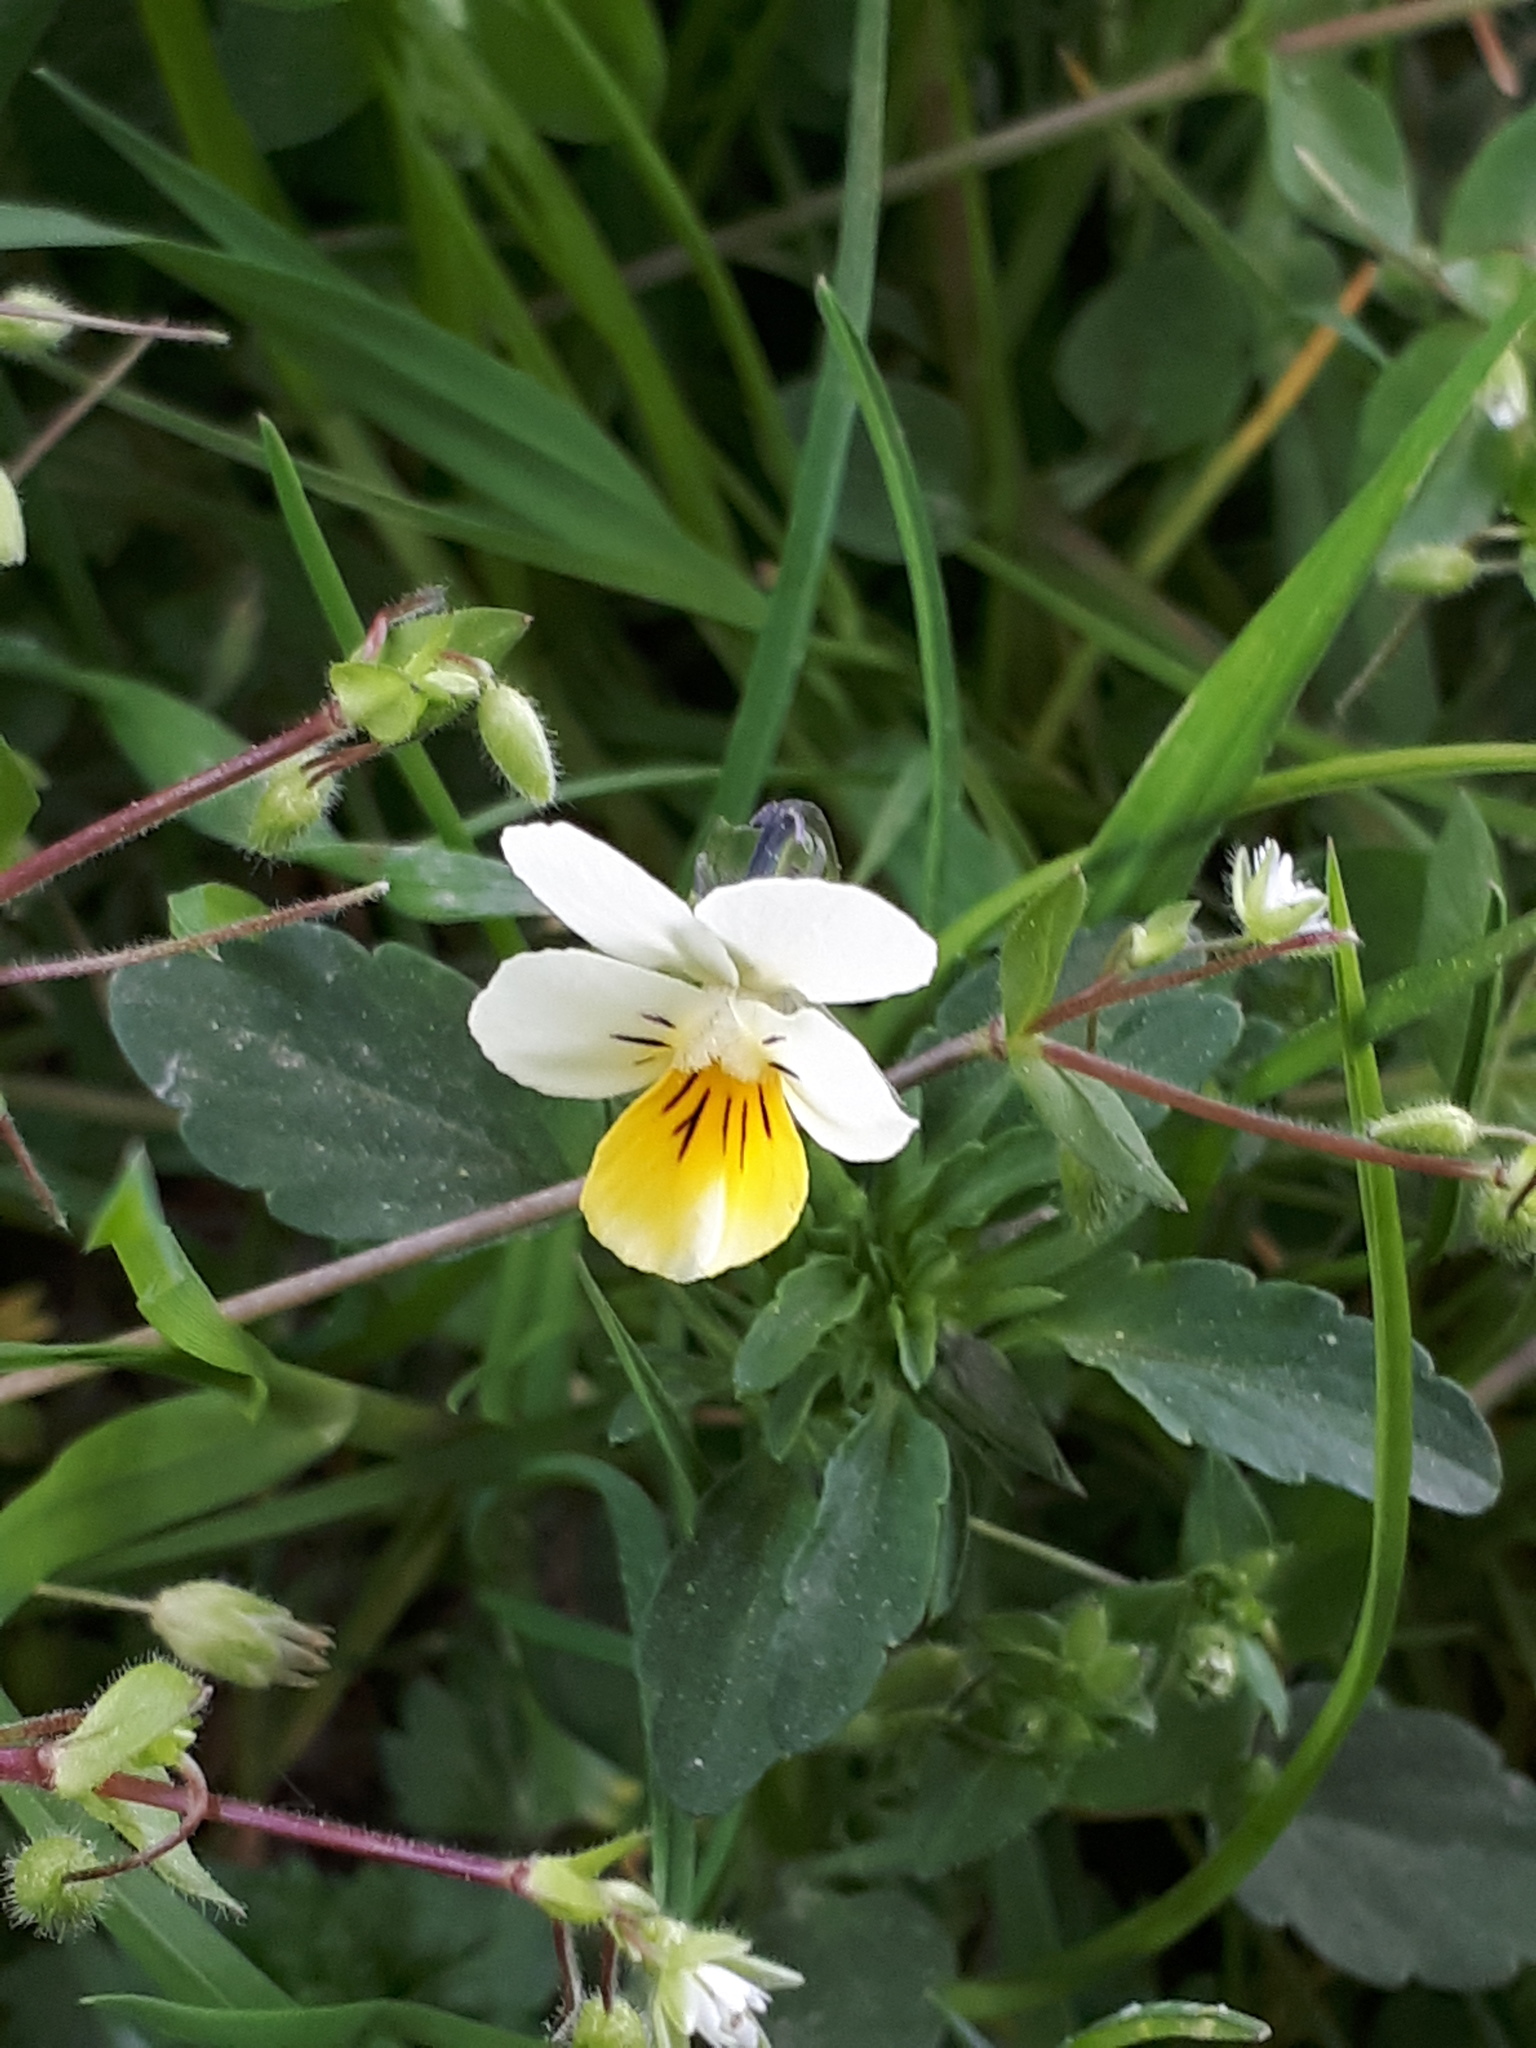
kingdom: Plantae
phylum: Tracheophyta
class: Magnoliopsida
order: Malpighiales
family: Violaceae
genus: Viola
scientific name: Viola arvensis
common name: Field pansy
